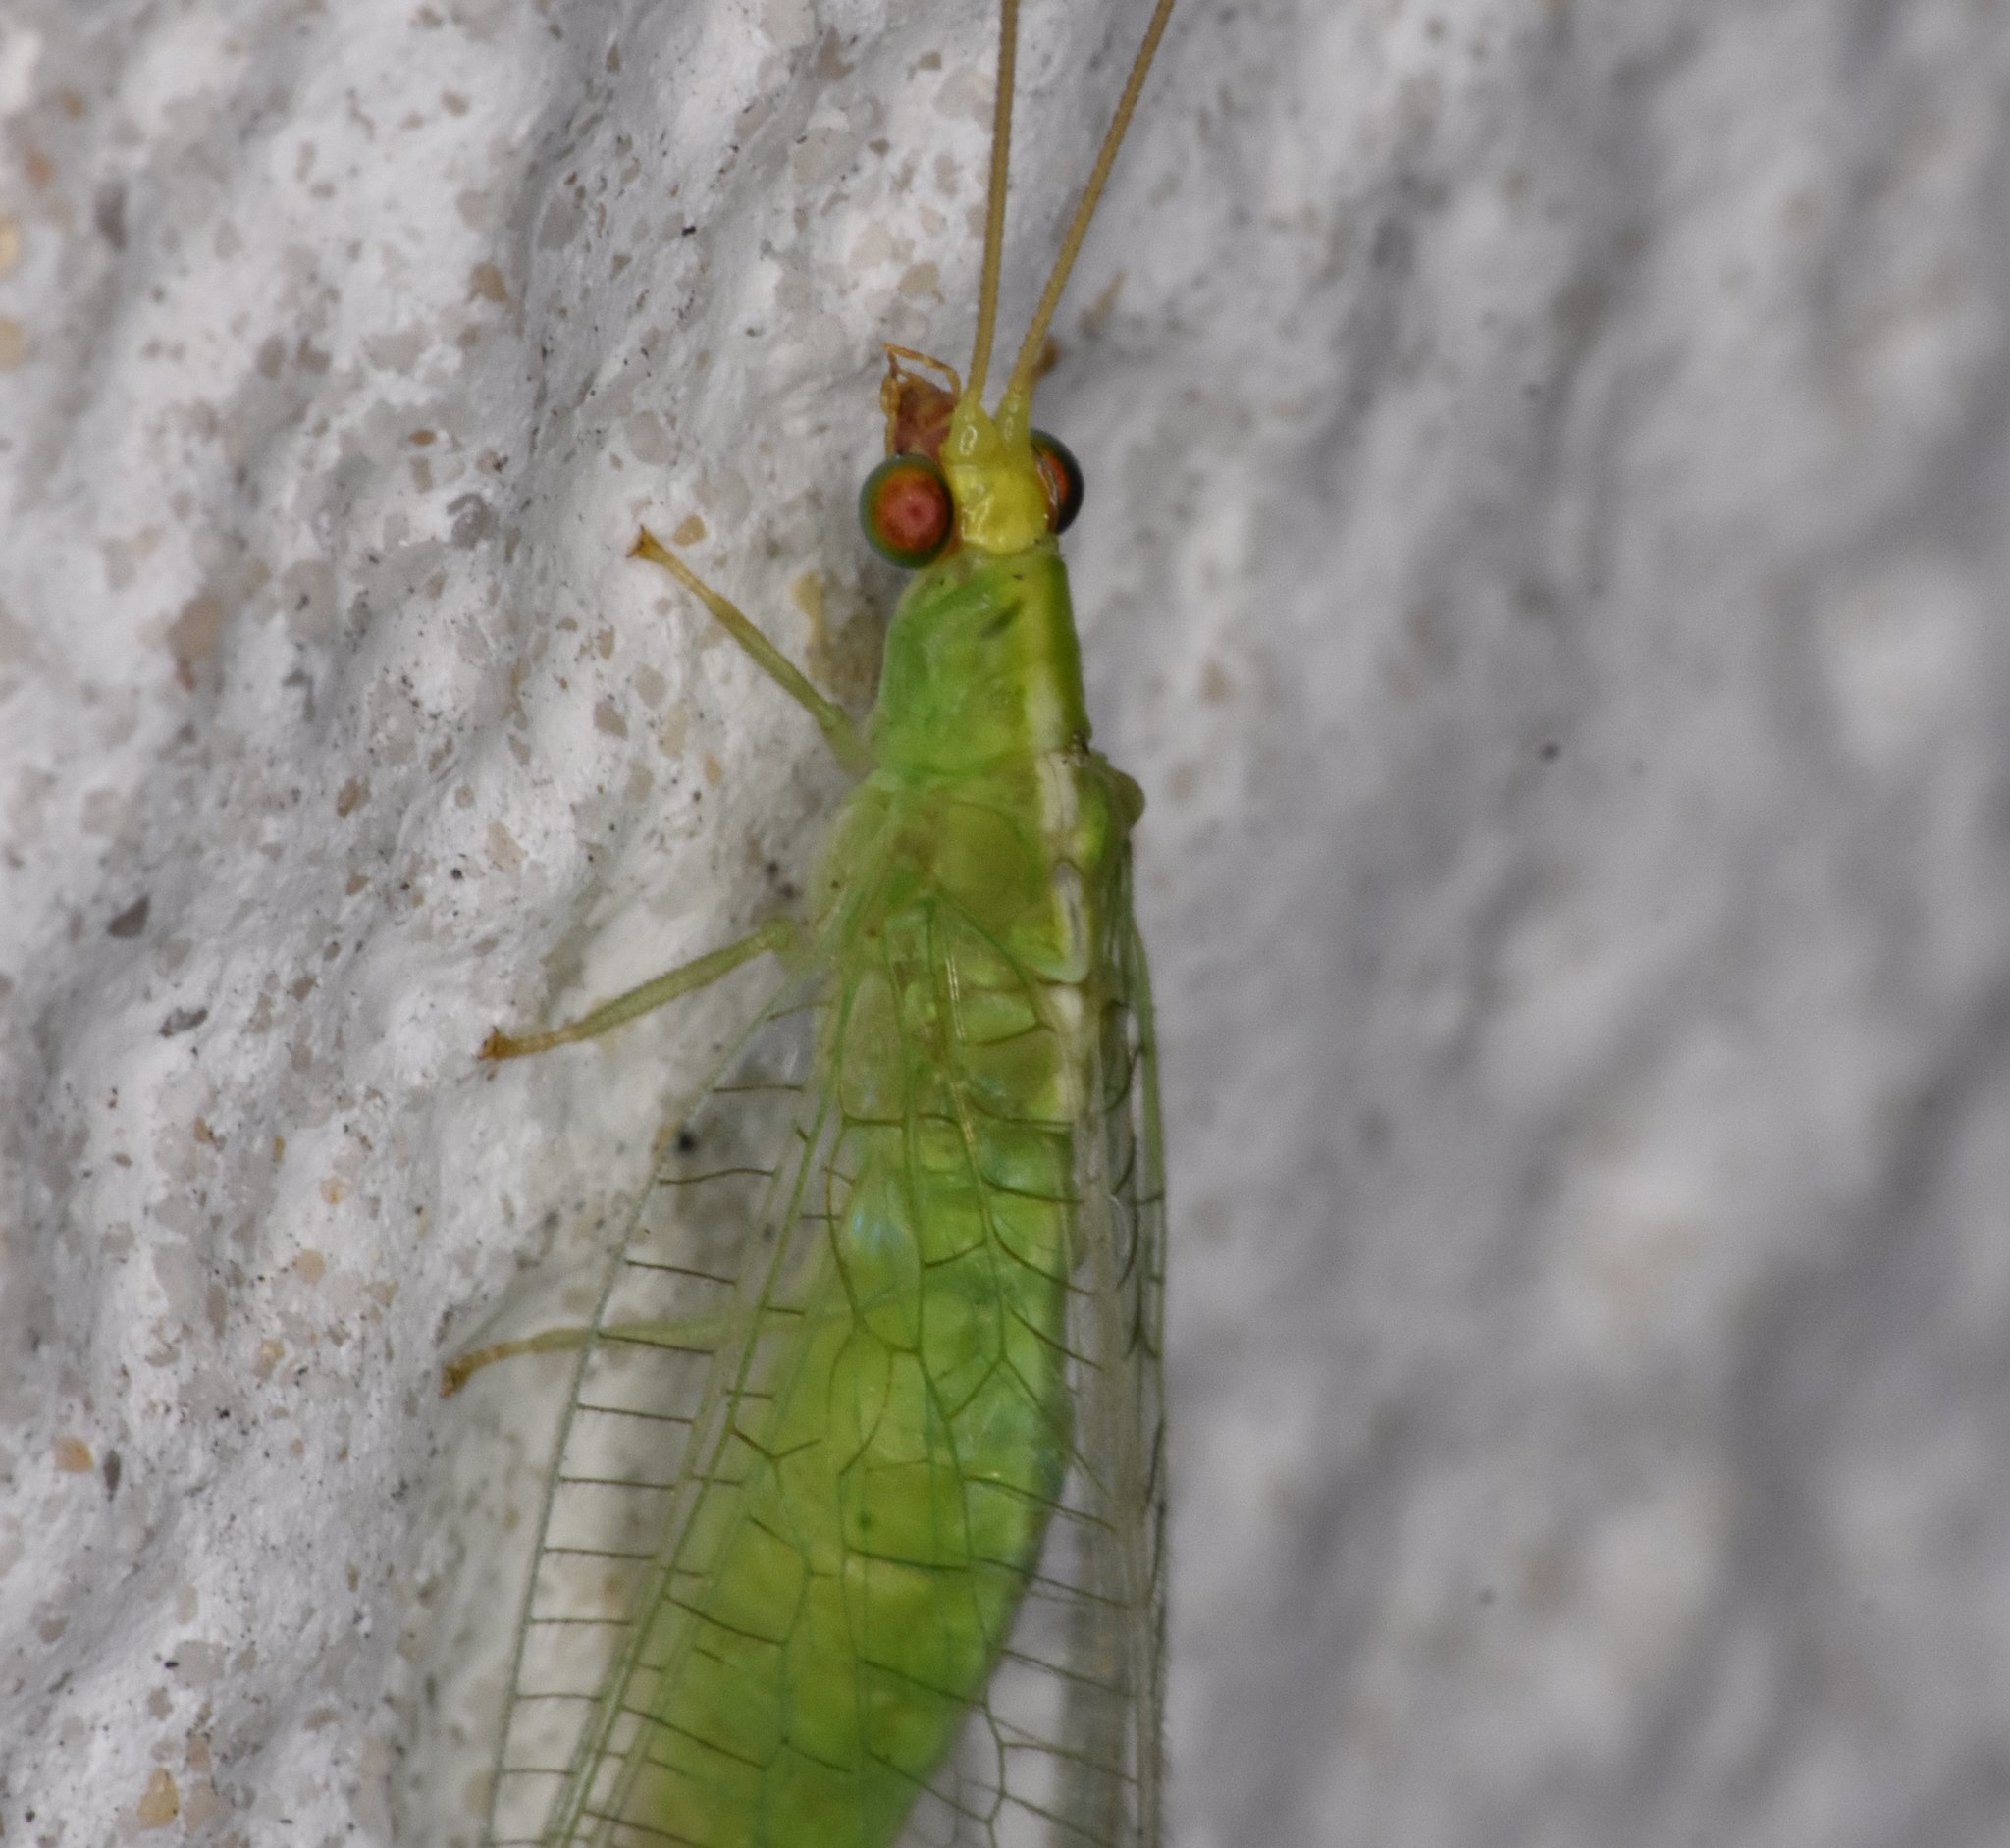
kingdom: Animalia
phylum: Arthropoda
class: Insecta
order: Neuroptera
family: Chrysopidae
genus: Chrysopodes
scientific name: Chrysopodes collaris
